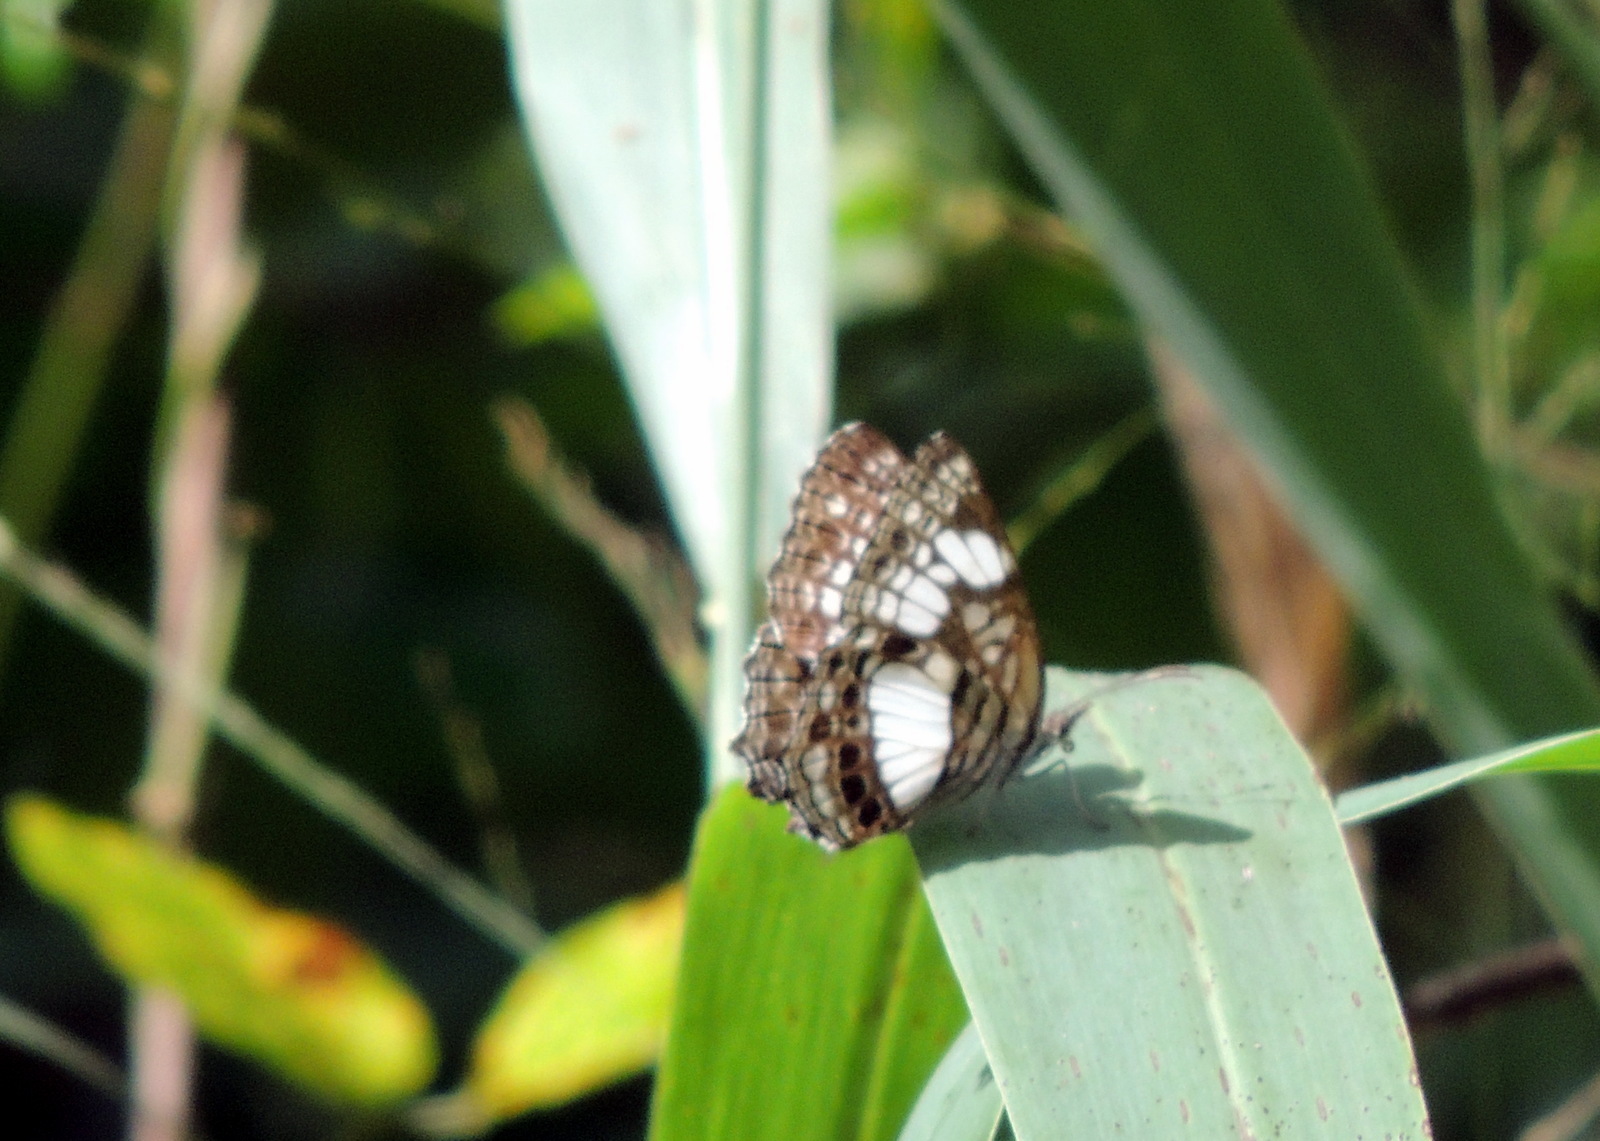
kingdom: Animalia
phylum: Arthropoda
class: Insecta
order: Lepidoptera
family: Nymphalidae
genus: Neptidopsis
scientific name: Neptidopsis ophione
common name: Scalloped false sailor
